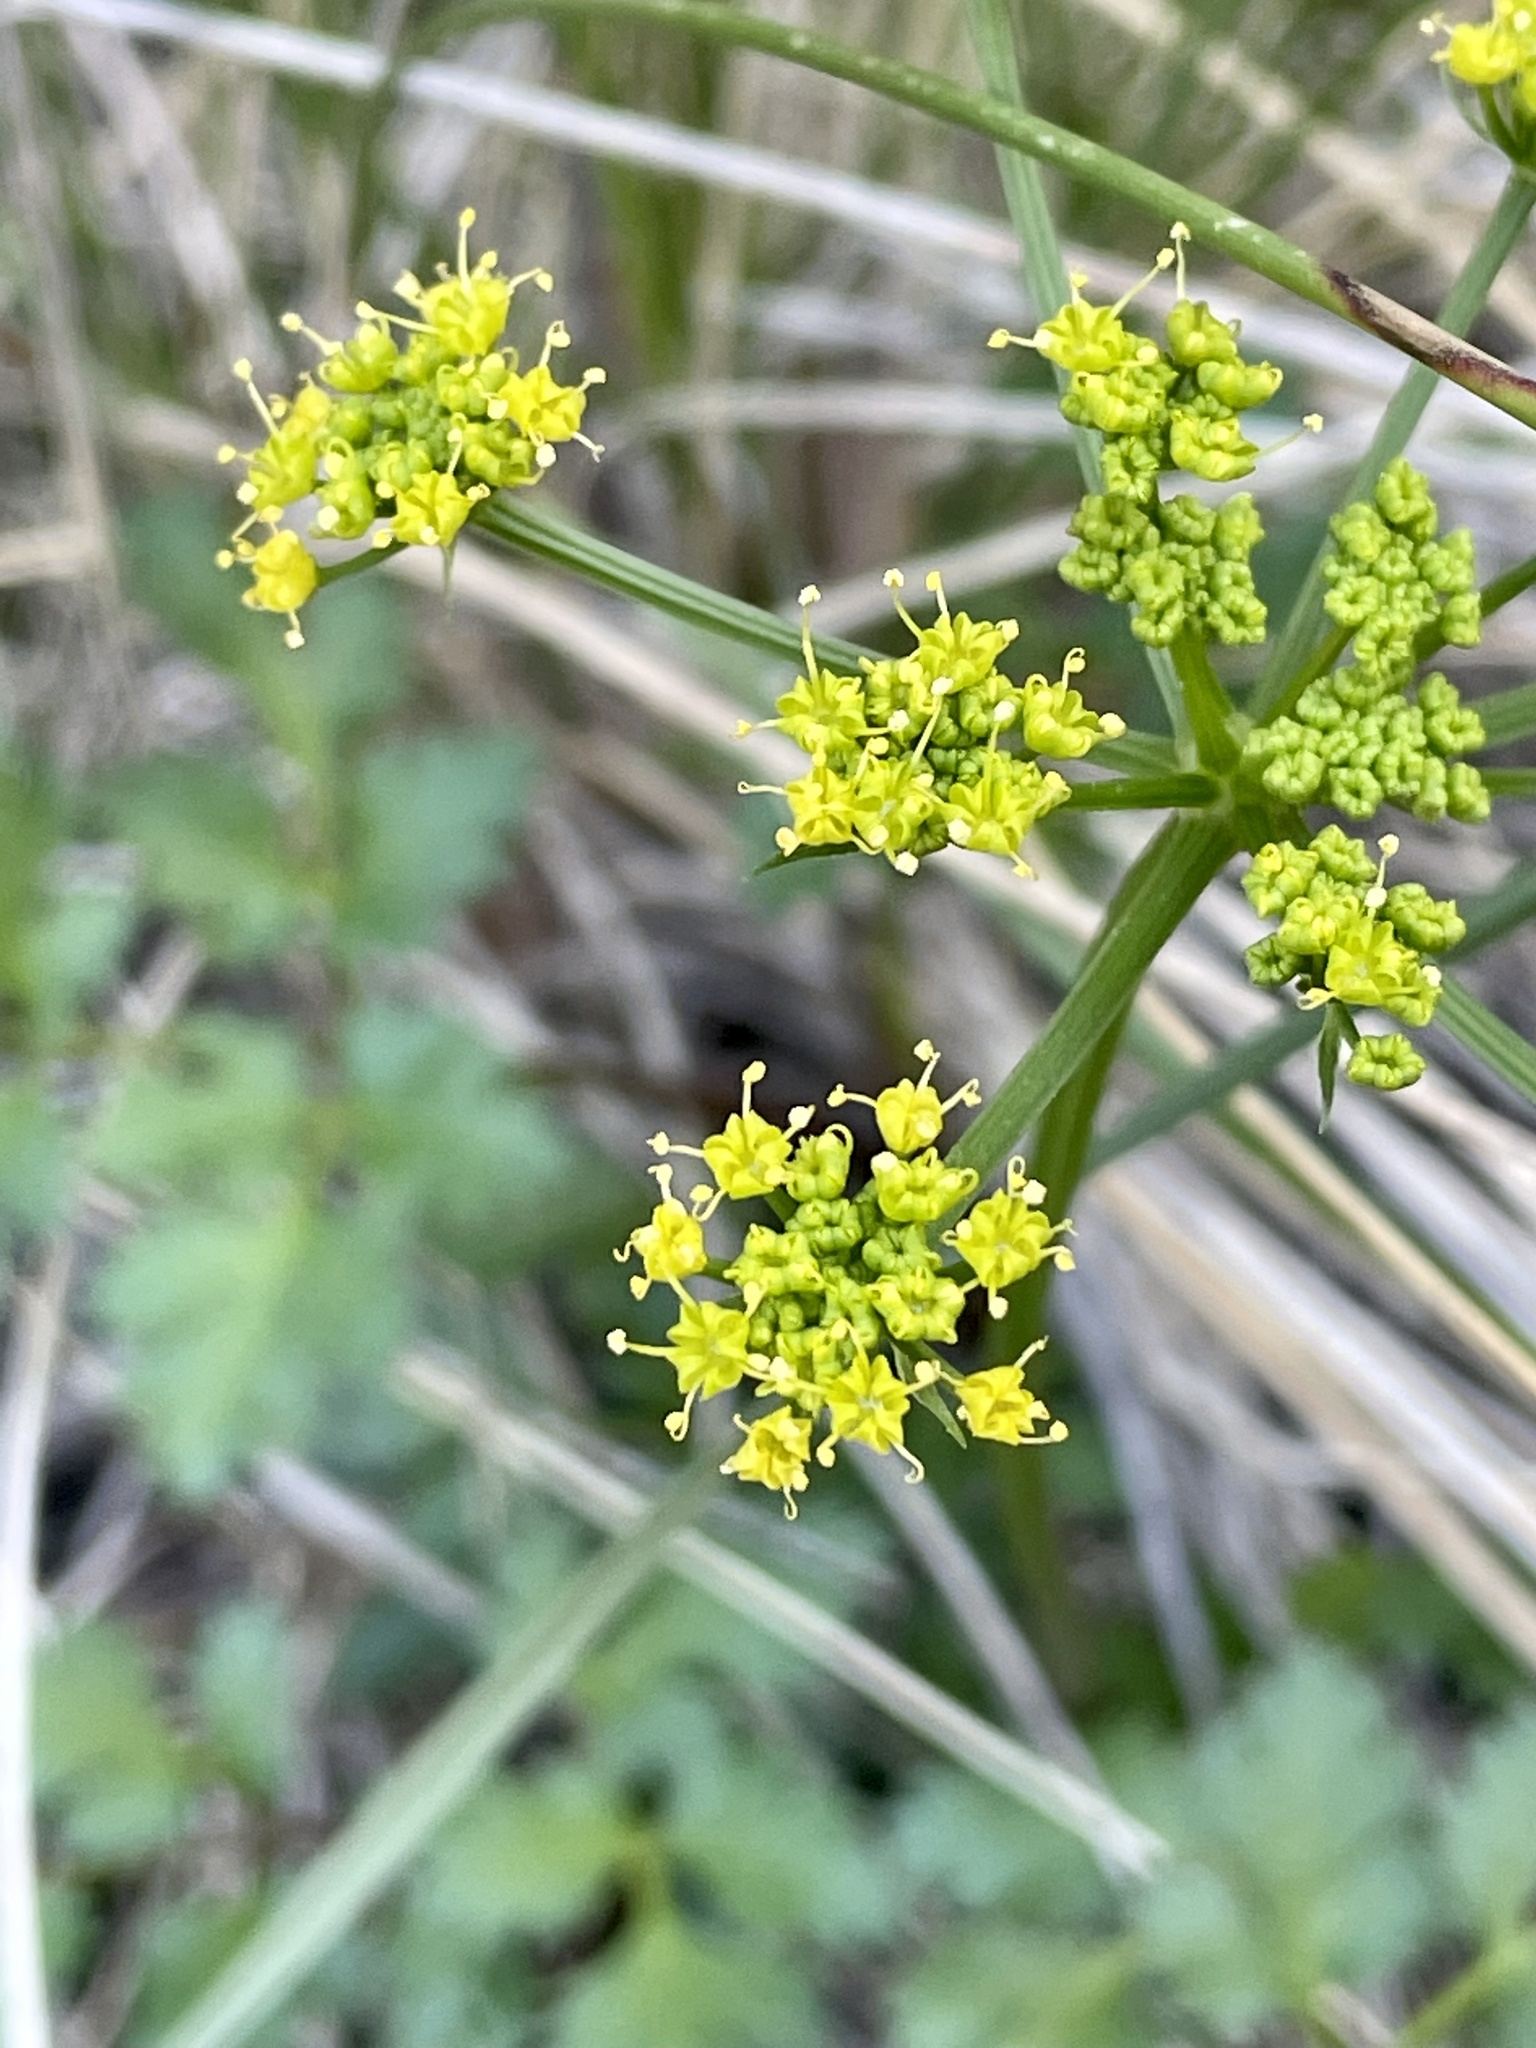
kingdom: Plantae
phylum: Tracheophyta
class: Magnoliopsida
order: Apiales
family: Apiaceae
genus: Tauschia
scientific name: Tauschia kelloggii
